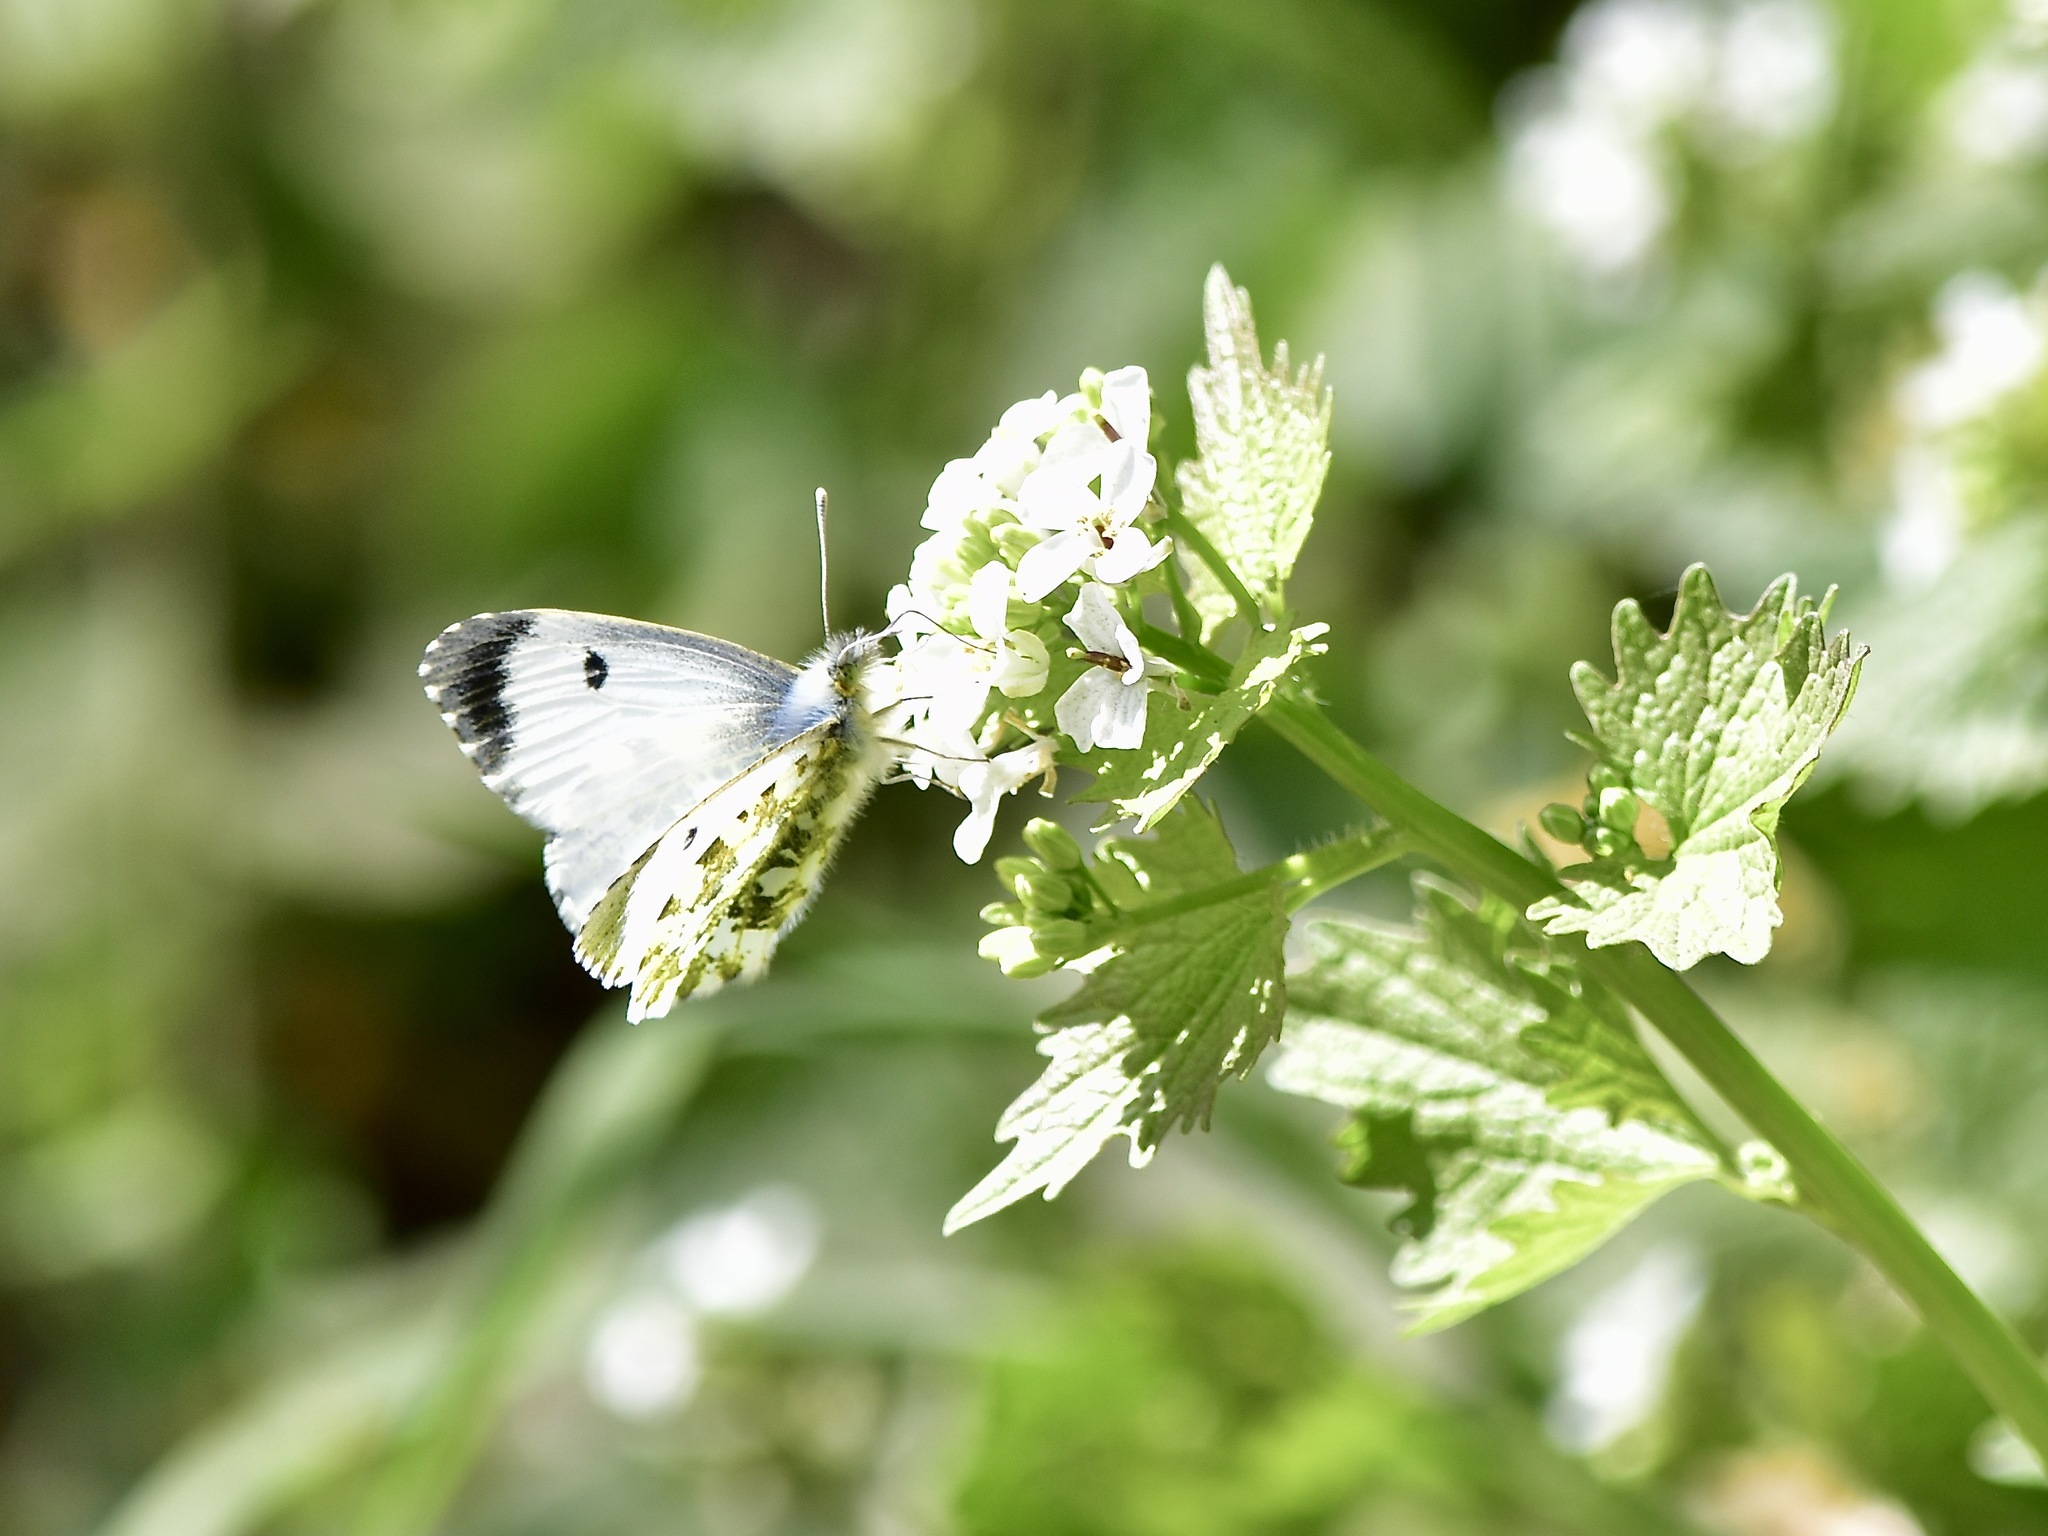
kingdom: Animalia
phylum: Arthropoda
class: Insecta
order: Lepidoptera
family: Pieridae
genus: Anthocharis
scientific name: Anthocharis cardamines
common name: Orange-tip
